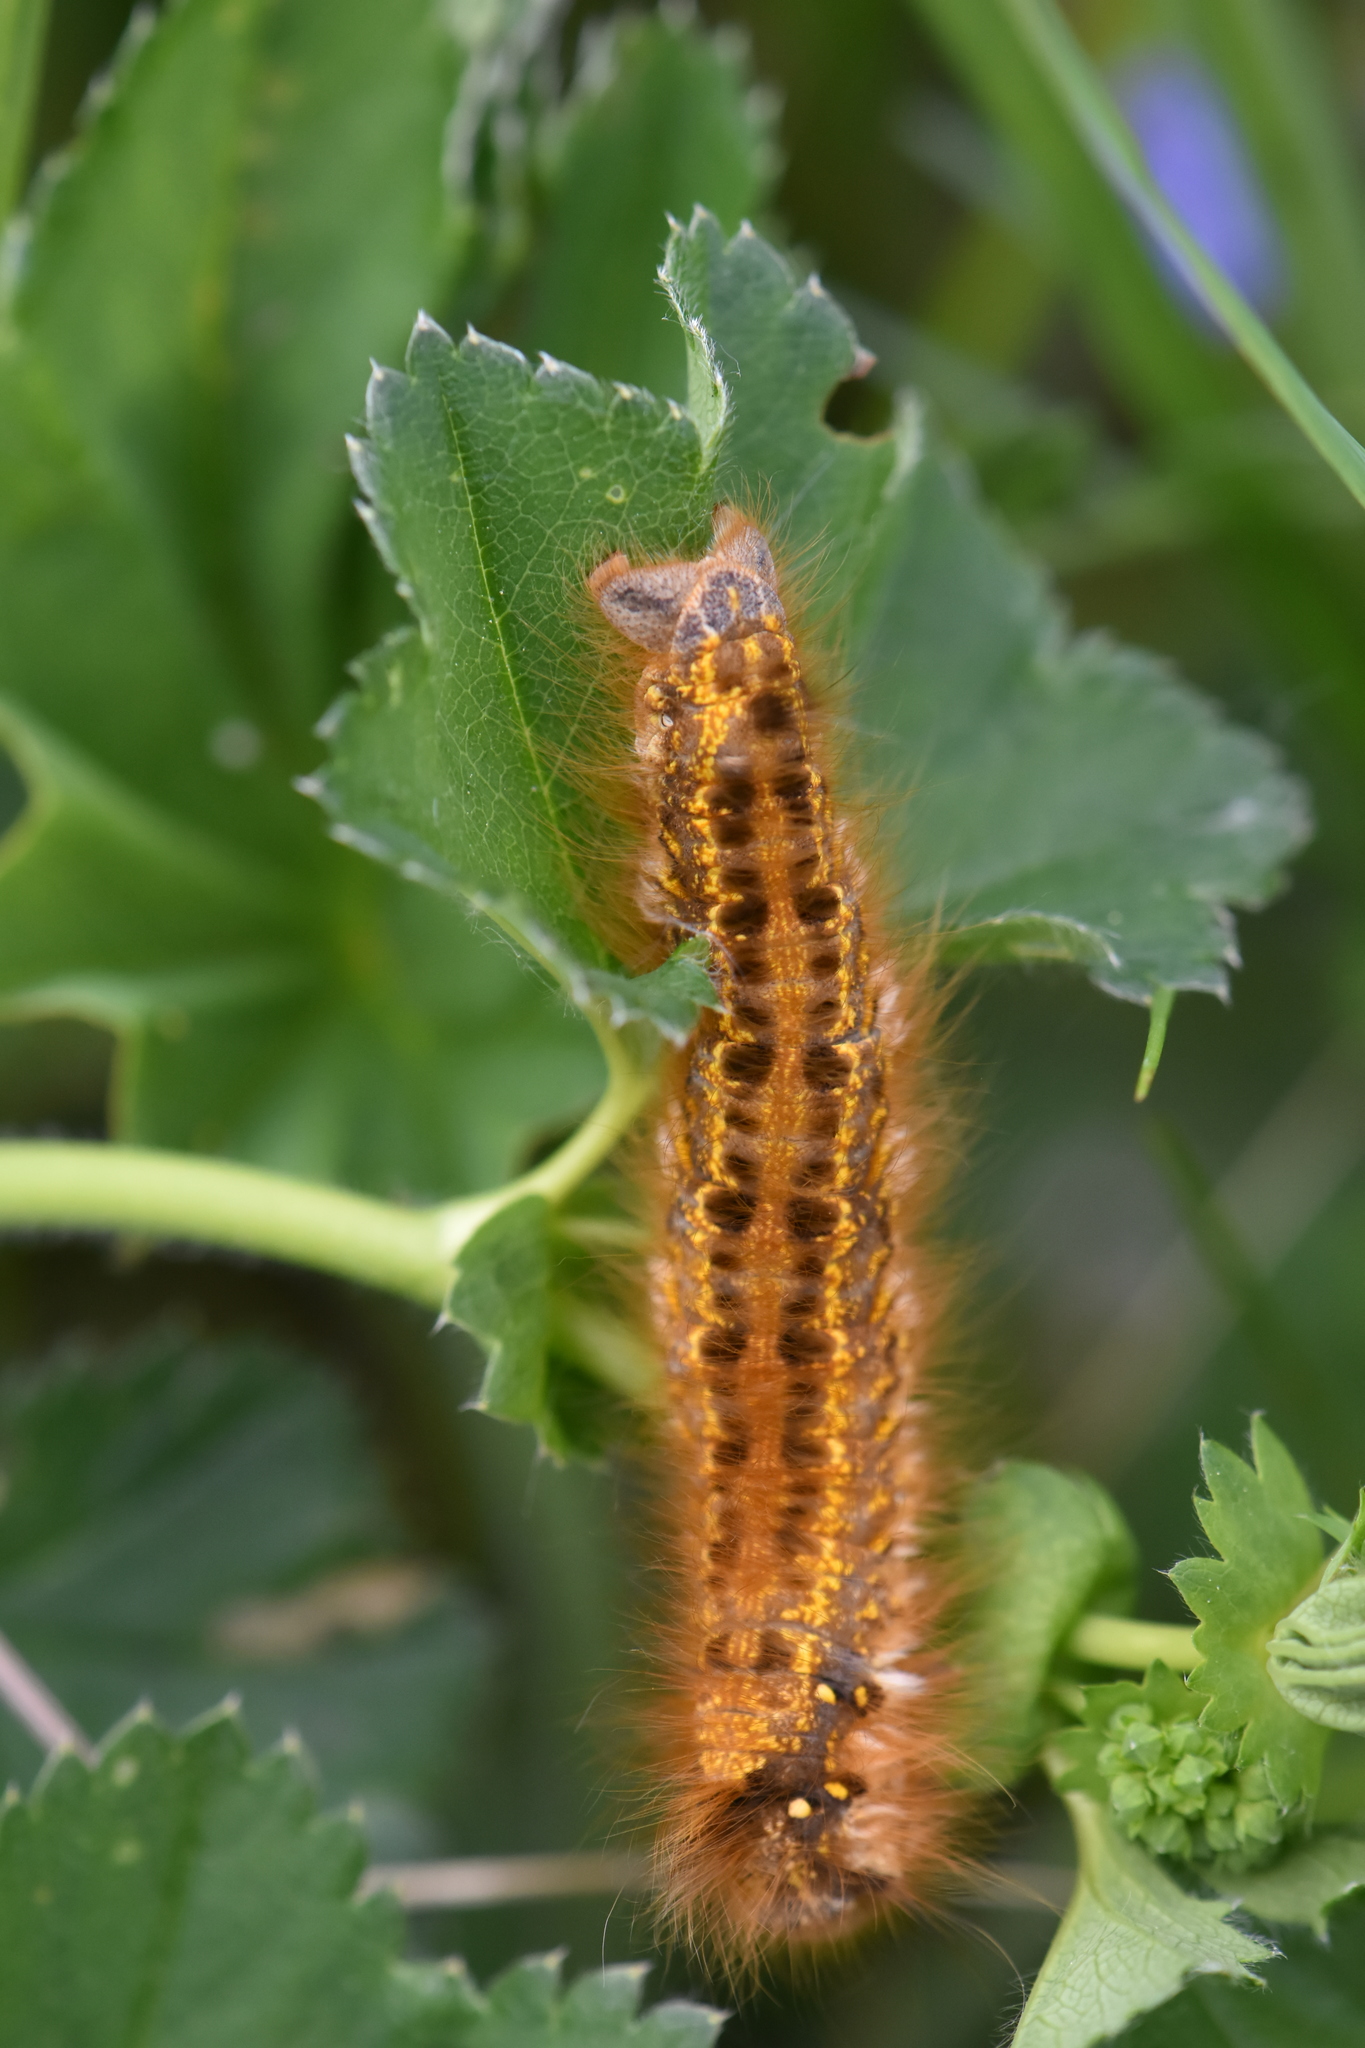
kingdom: Animalia
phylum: Arthropoda
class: Insecta
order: Lepidoptera
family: Lasiocampidae
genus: Euthrix
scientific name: Euthrix potatoria
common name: Drinker
